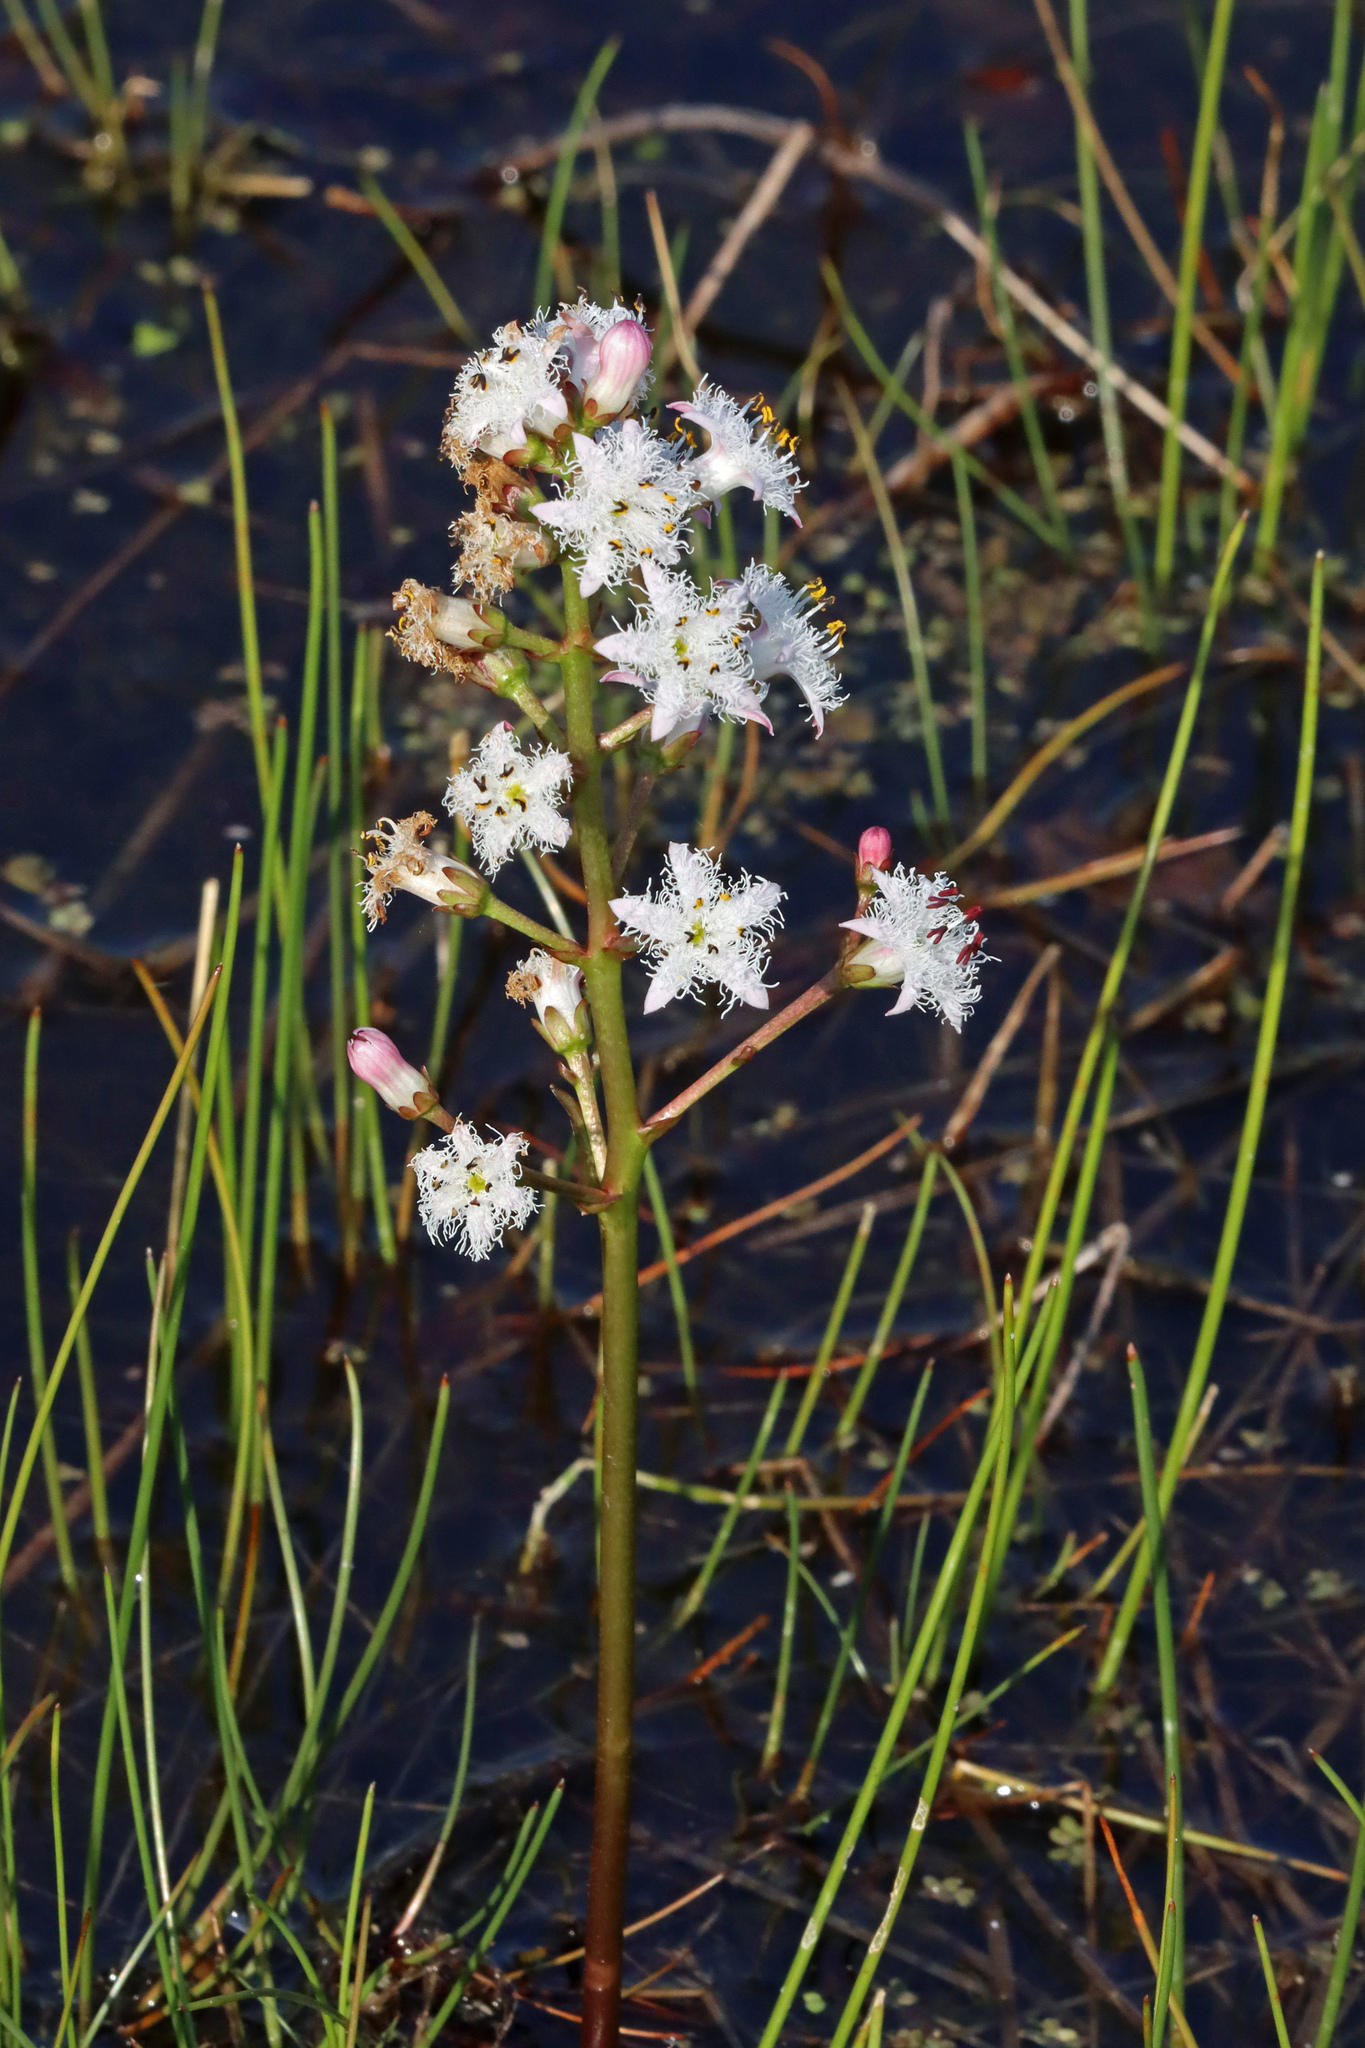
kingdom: Plantae
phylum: Tracheophyta
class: Magnoliopsida
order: Asterales
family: Menyanthaceae
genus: Menyanthes
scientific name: Menyanthes trifoliata
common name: Bogbean
